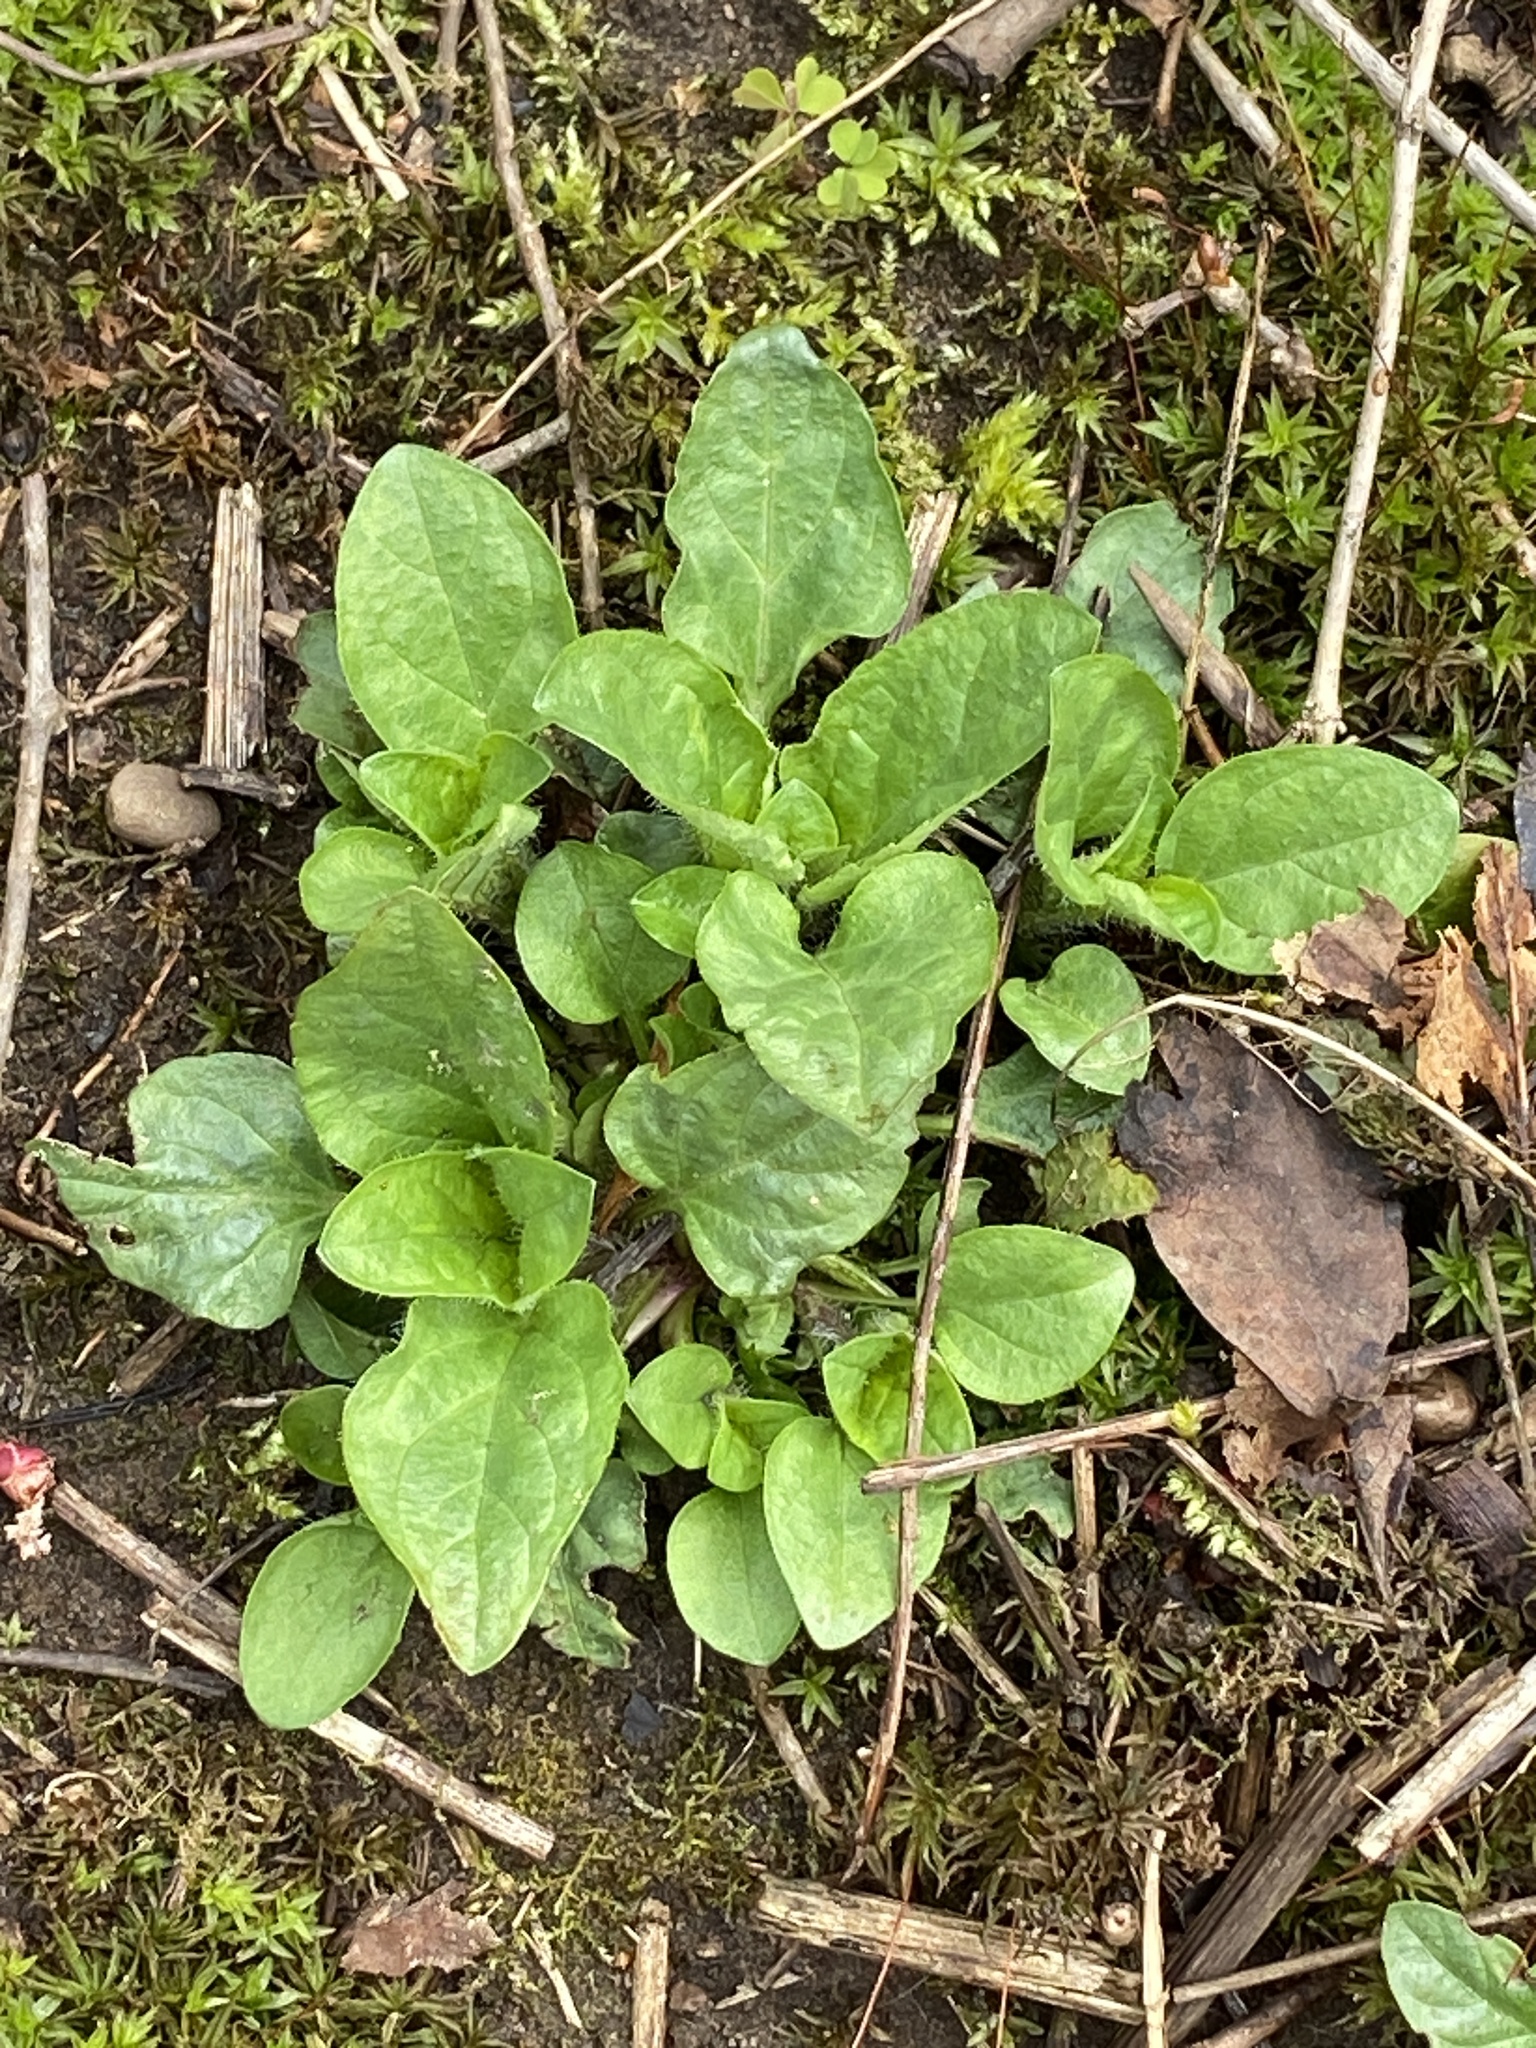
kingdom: Plantae
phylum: Tracheophyta
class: Magnoliopsida
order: Lamiales
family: Lamiaceae
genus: Prunella
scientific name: Prunella vulgaris
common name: Heal-all
